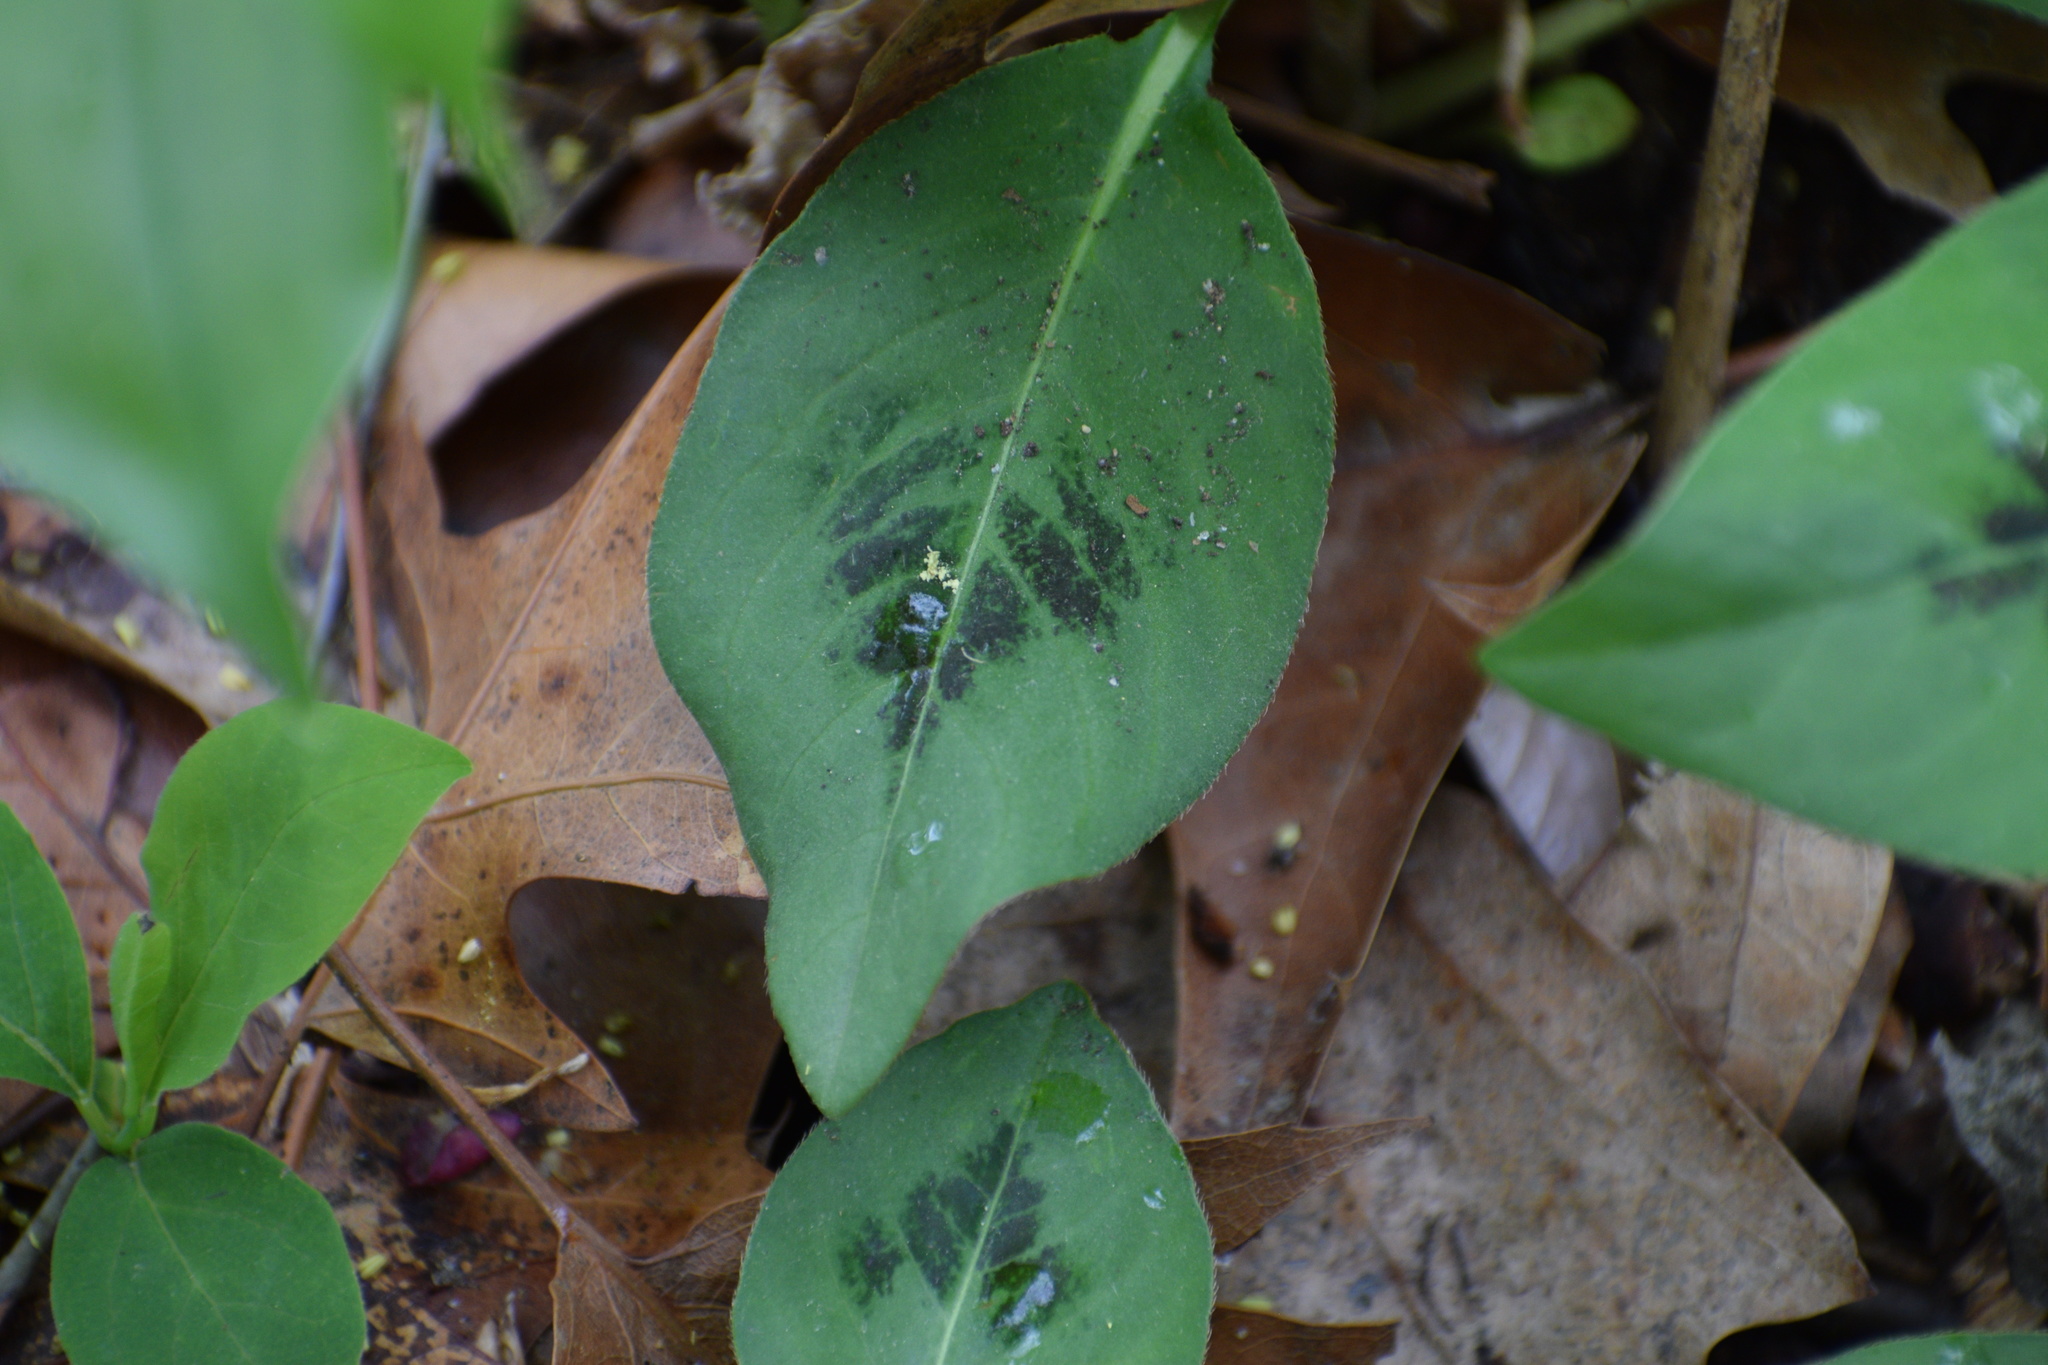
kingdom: Plantae
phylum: Tracheophyta
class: Magnoliopsida
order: Caryophyllales
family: Polygonaceae
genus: Persicaria
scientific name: Persicaria virginiana
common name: Jumpseed
